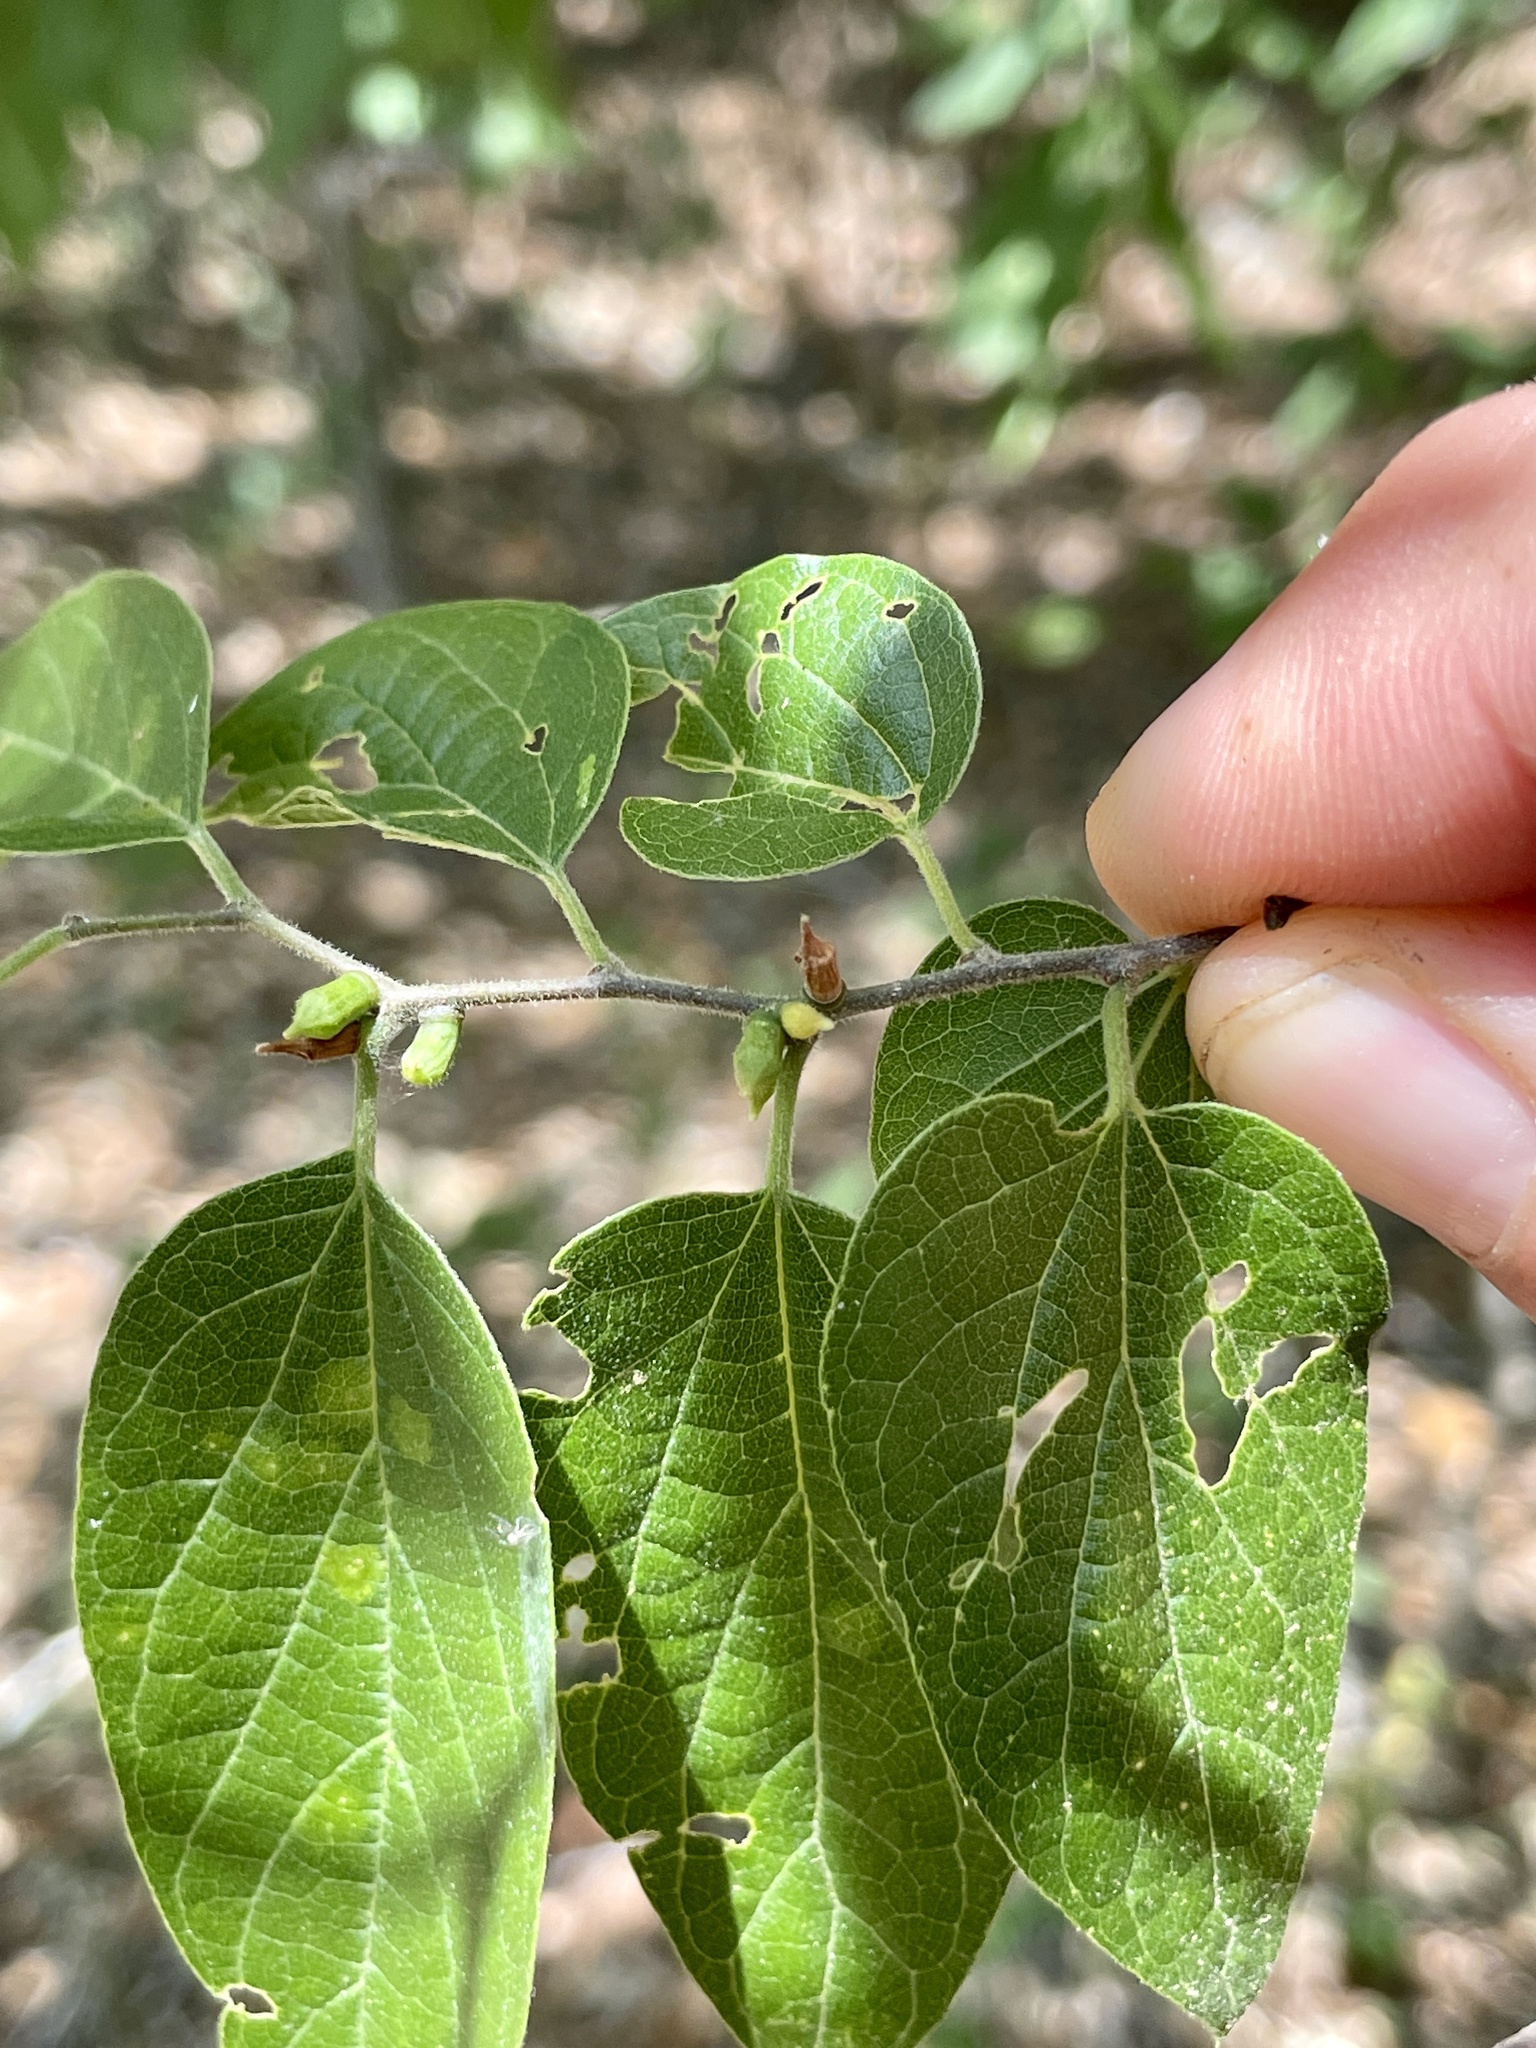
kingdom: Animalia
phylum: Arthropoda
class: Insecta
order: Diptera
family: Cecidomyiidae
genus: Celticecis
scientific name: Celticecis ramicola
